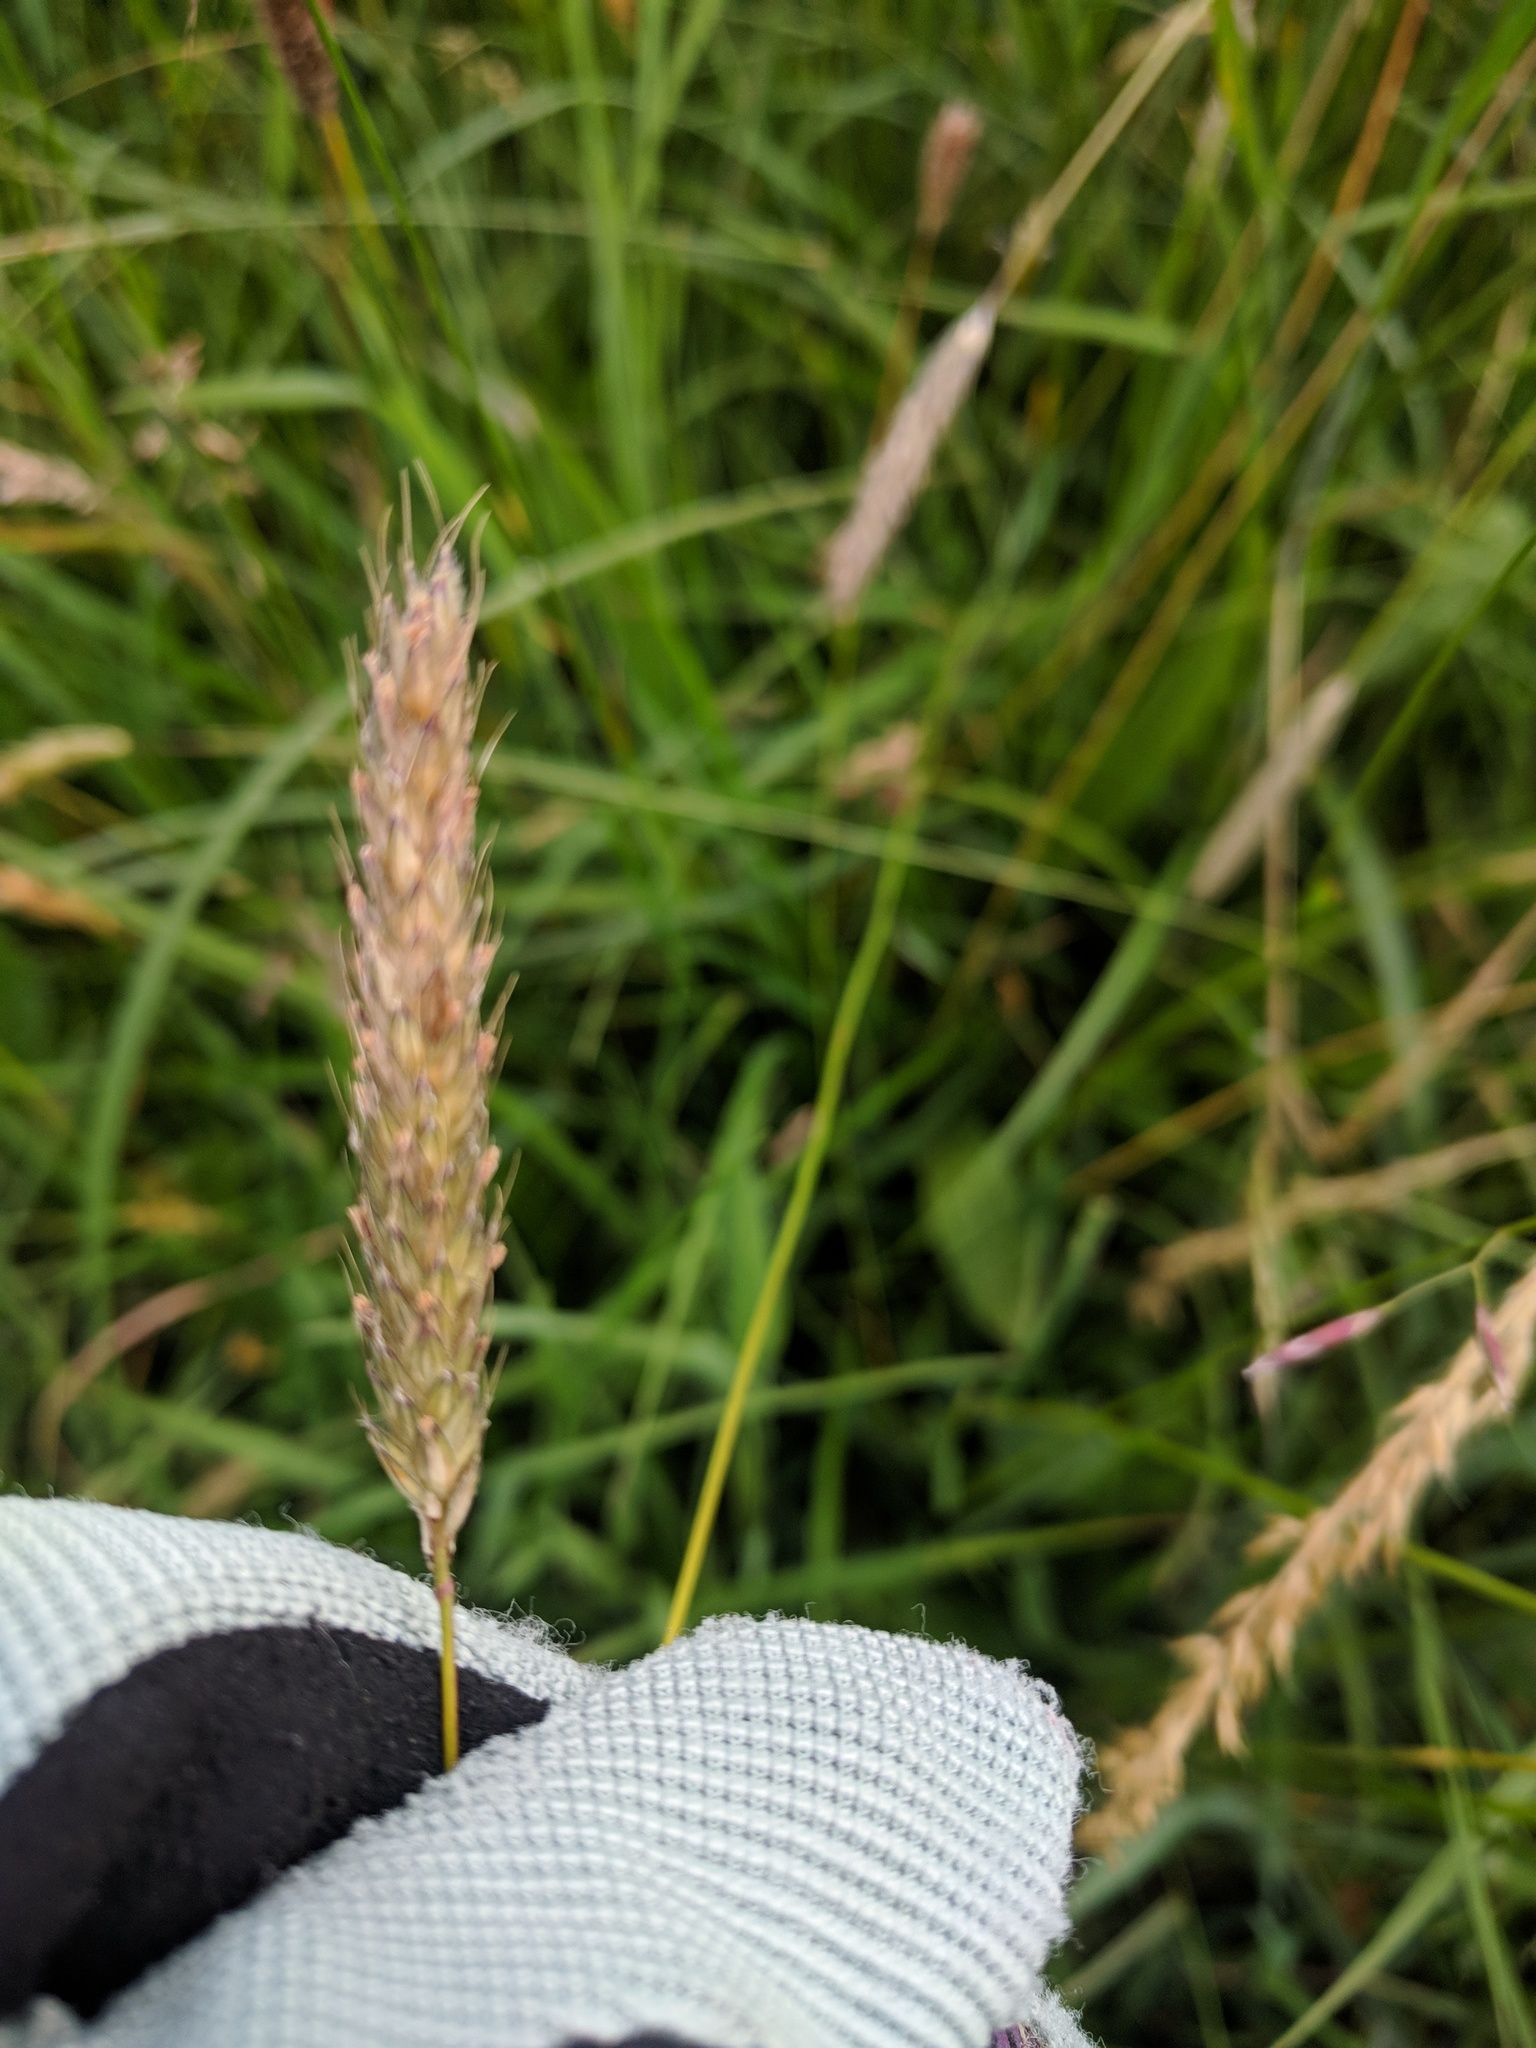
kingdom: Plantae
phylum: Tracheophyta
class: Liliopsida
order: Poales
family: Poaceae
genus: Alopecurus
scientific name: Alopecurus pratensis
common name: Meadow foxtail
